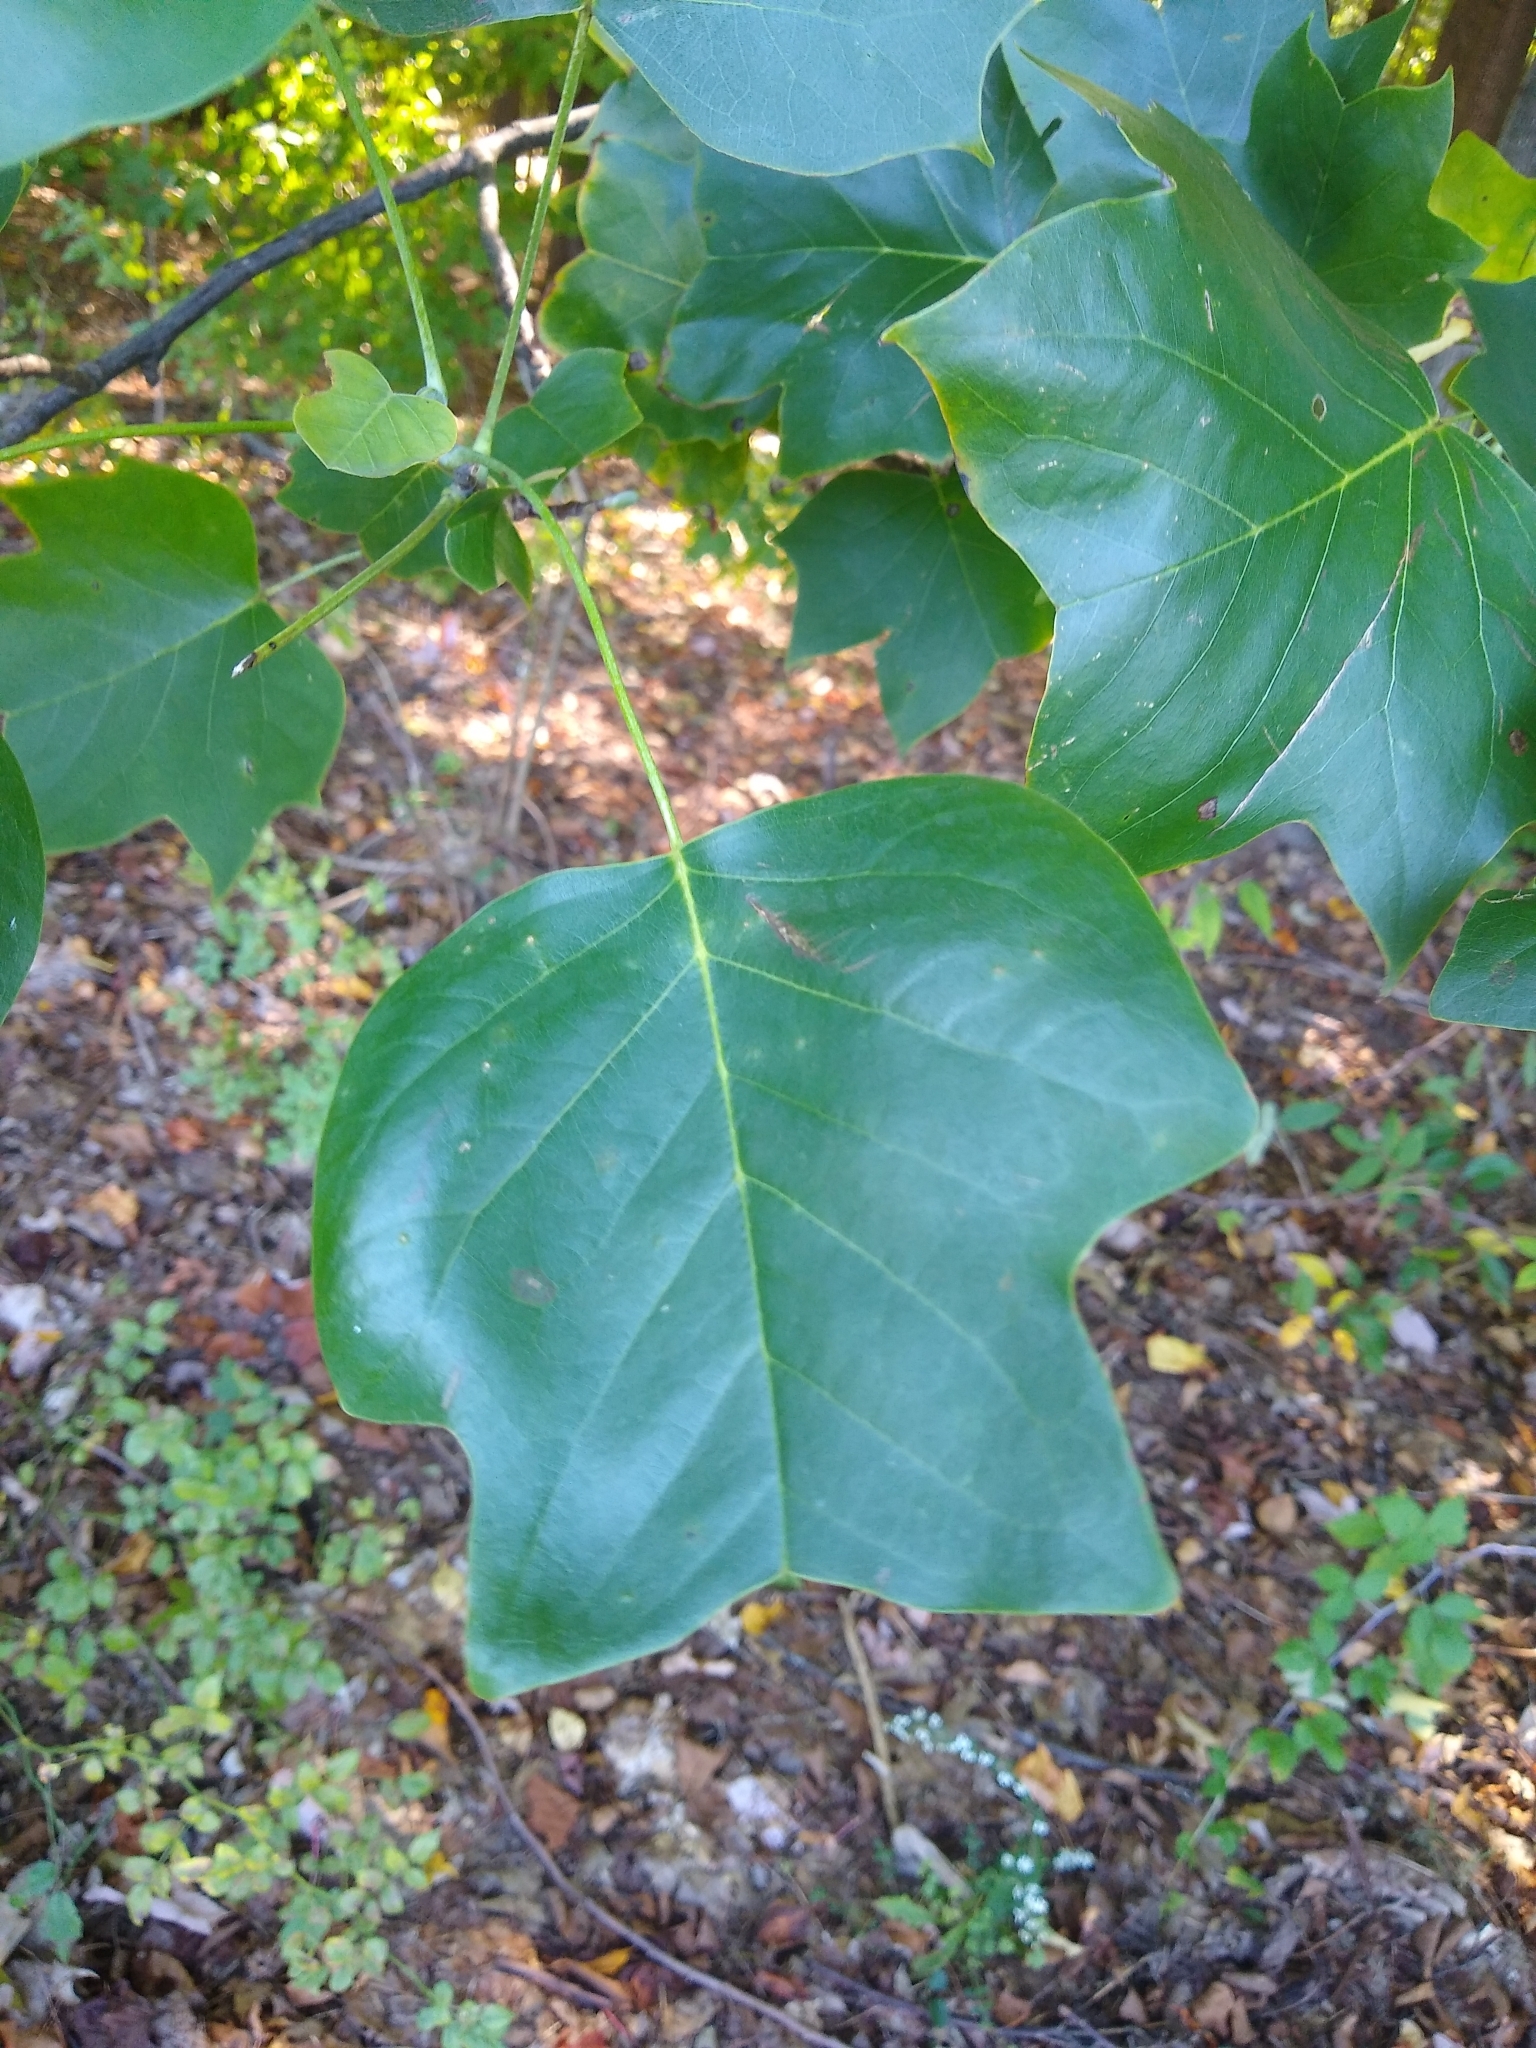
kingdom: Plantae
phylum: Tracheophyta
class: Magnoliopsida
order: Magnoliales
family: Magnoliaceae
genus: Liriodendron
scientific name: Liriodendron tulipifera
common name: Tulip tree
